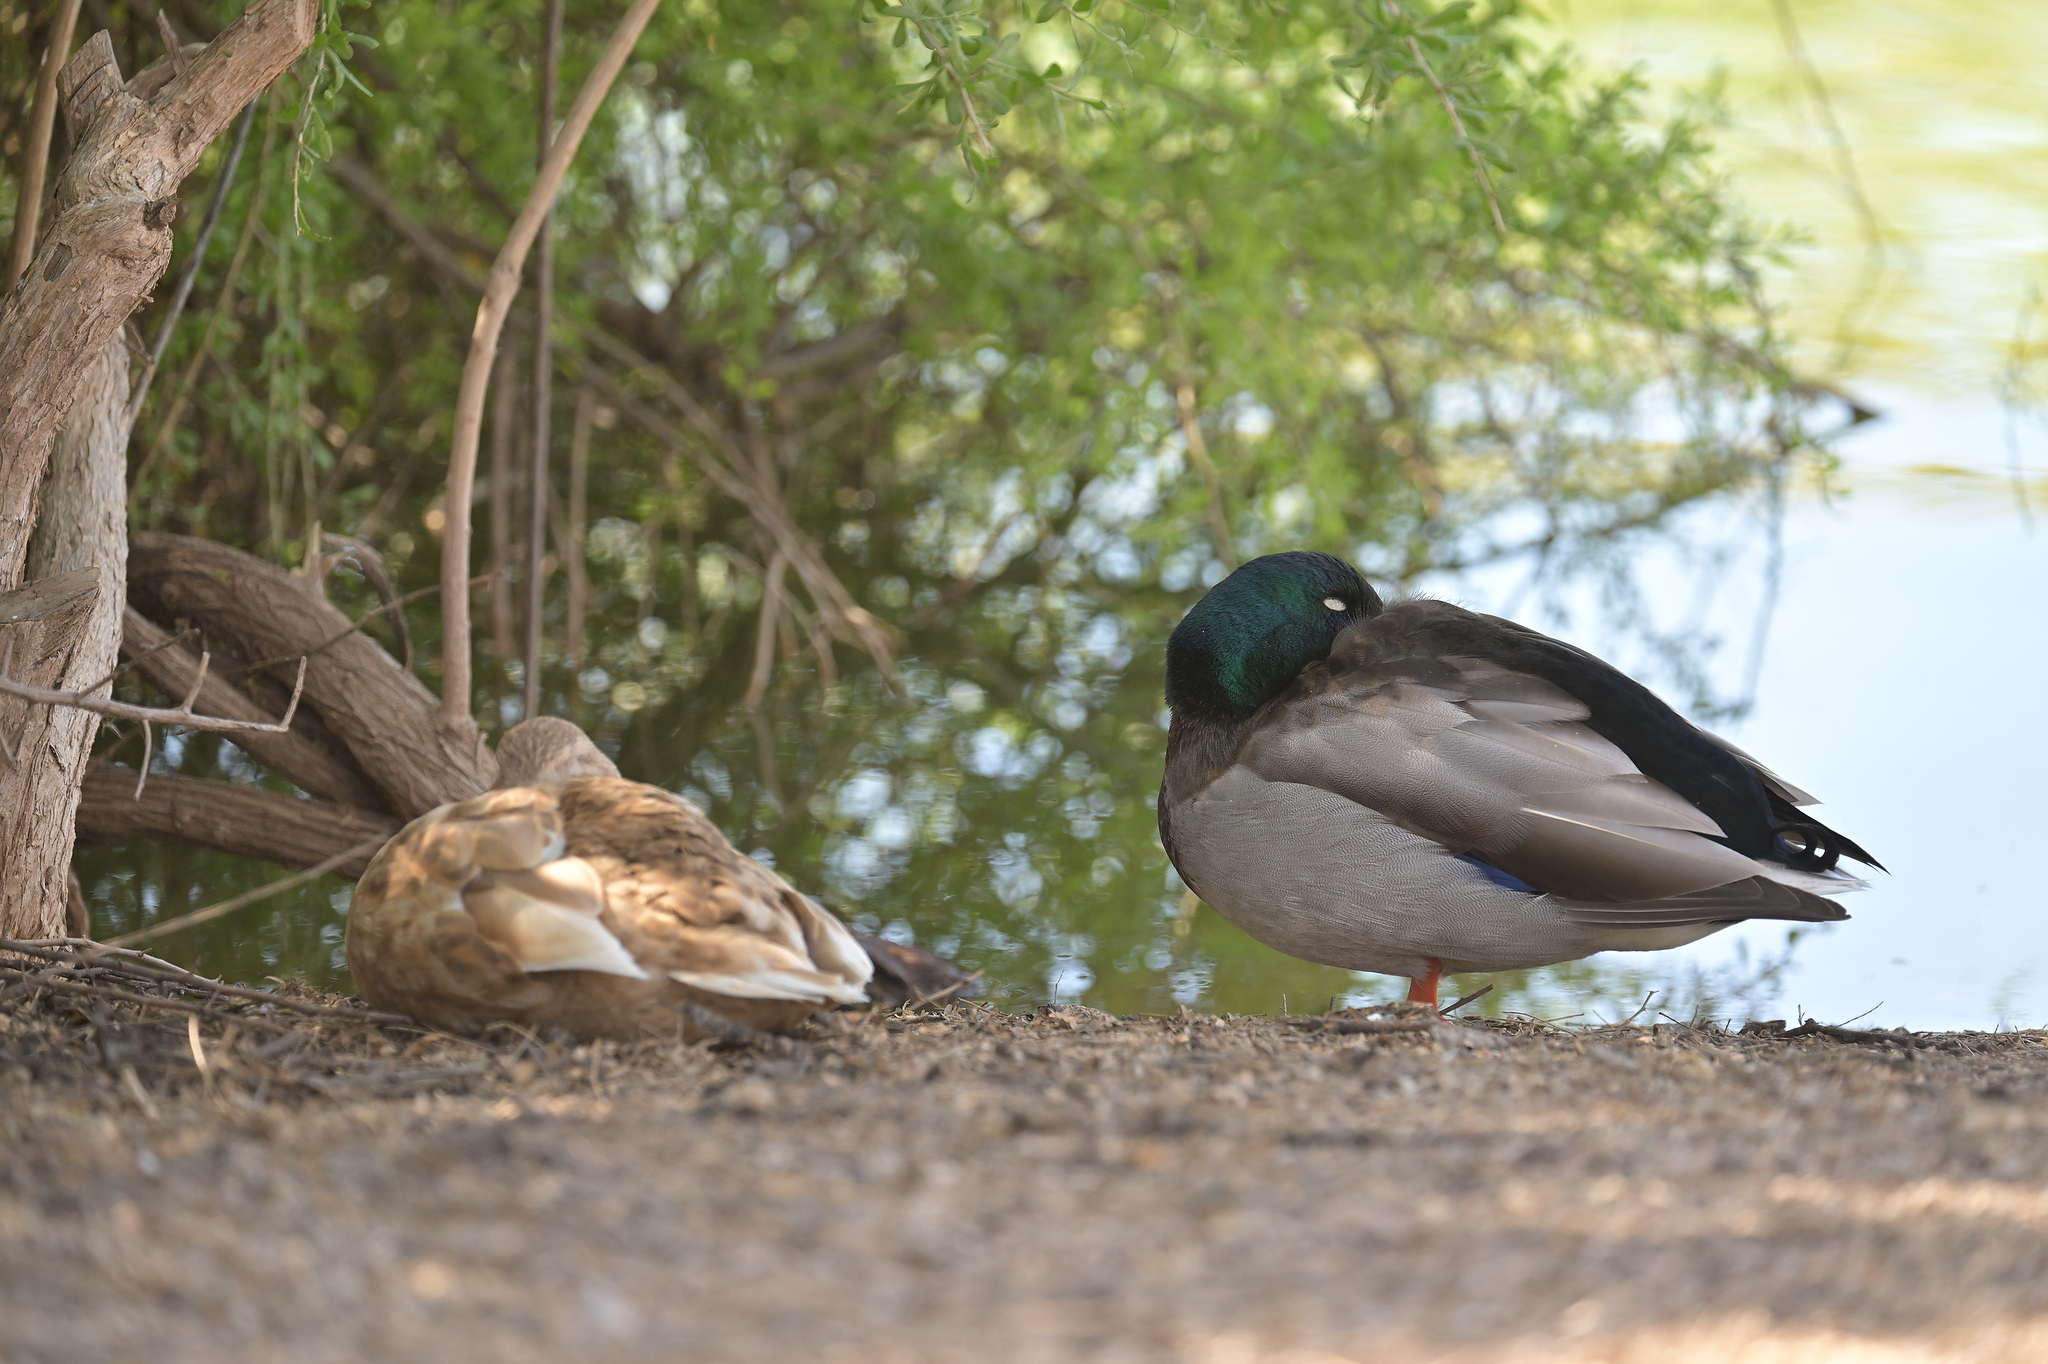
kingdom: Animalia
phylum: Chordata
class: Aves
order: Anseriformes
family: Anatidae
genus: Anas
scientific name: Anas platyrhynchos
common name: Mallard
